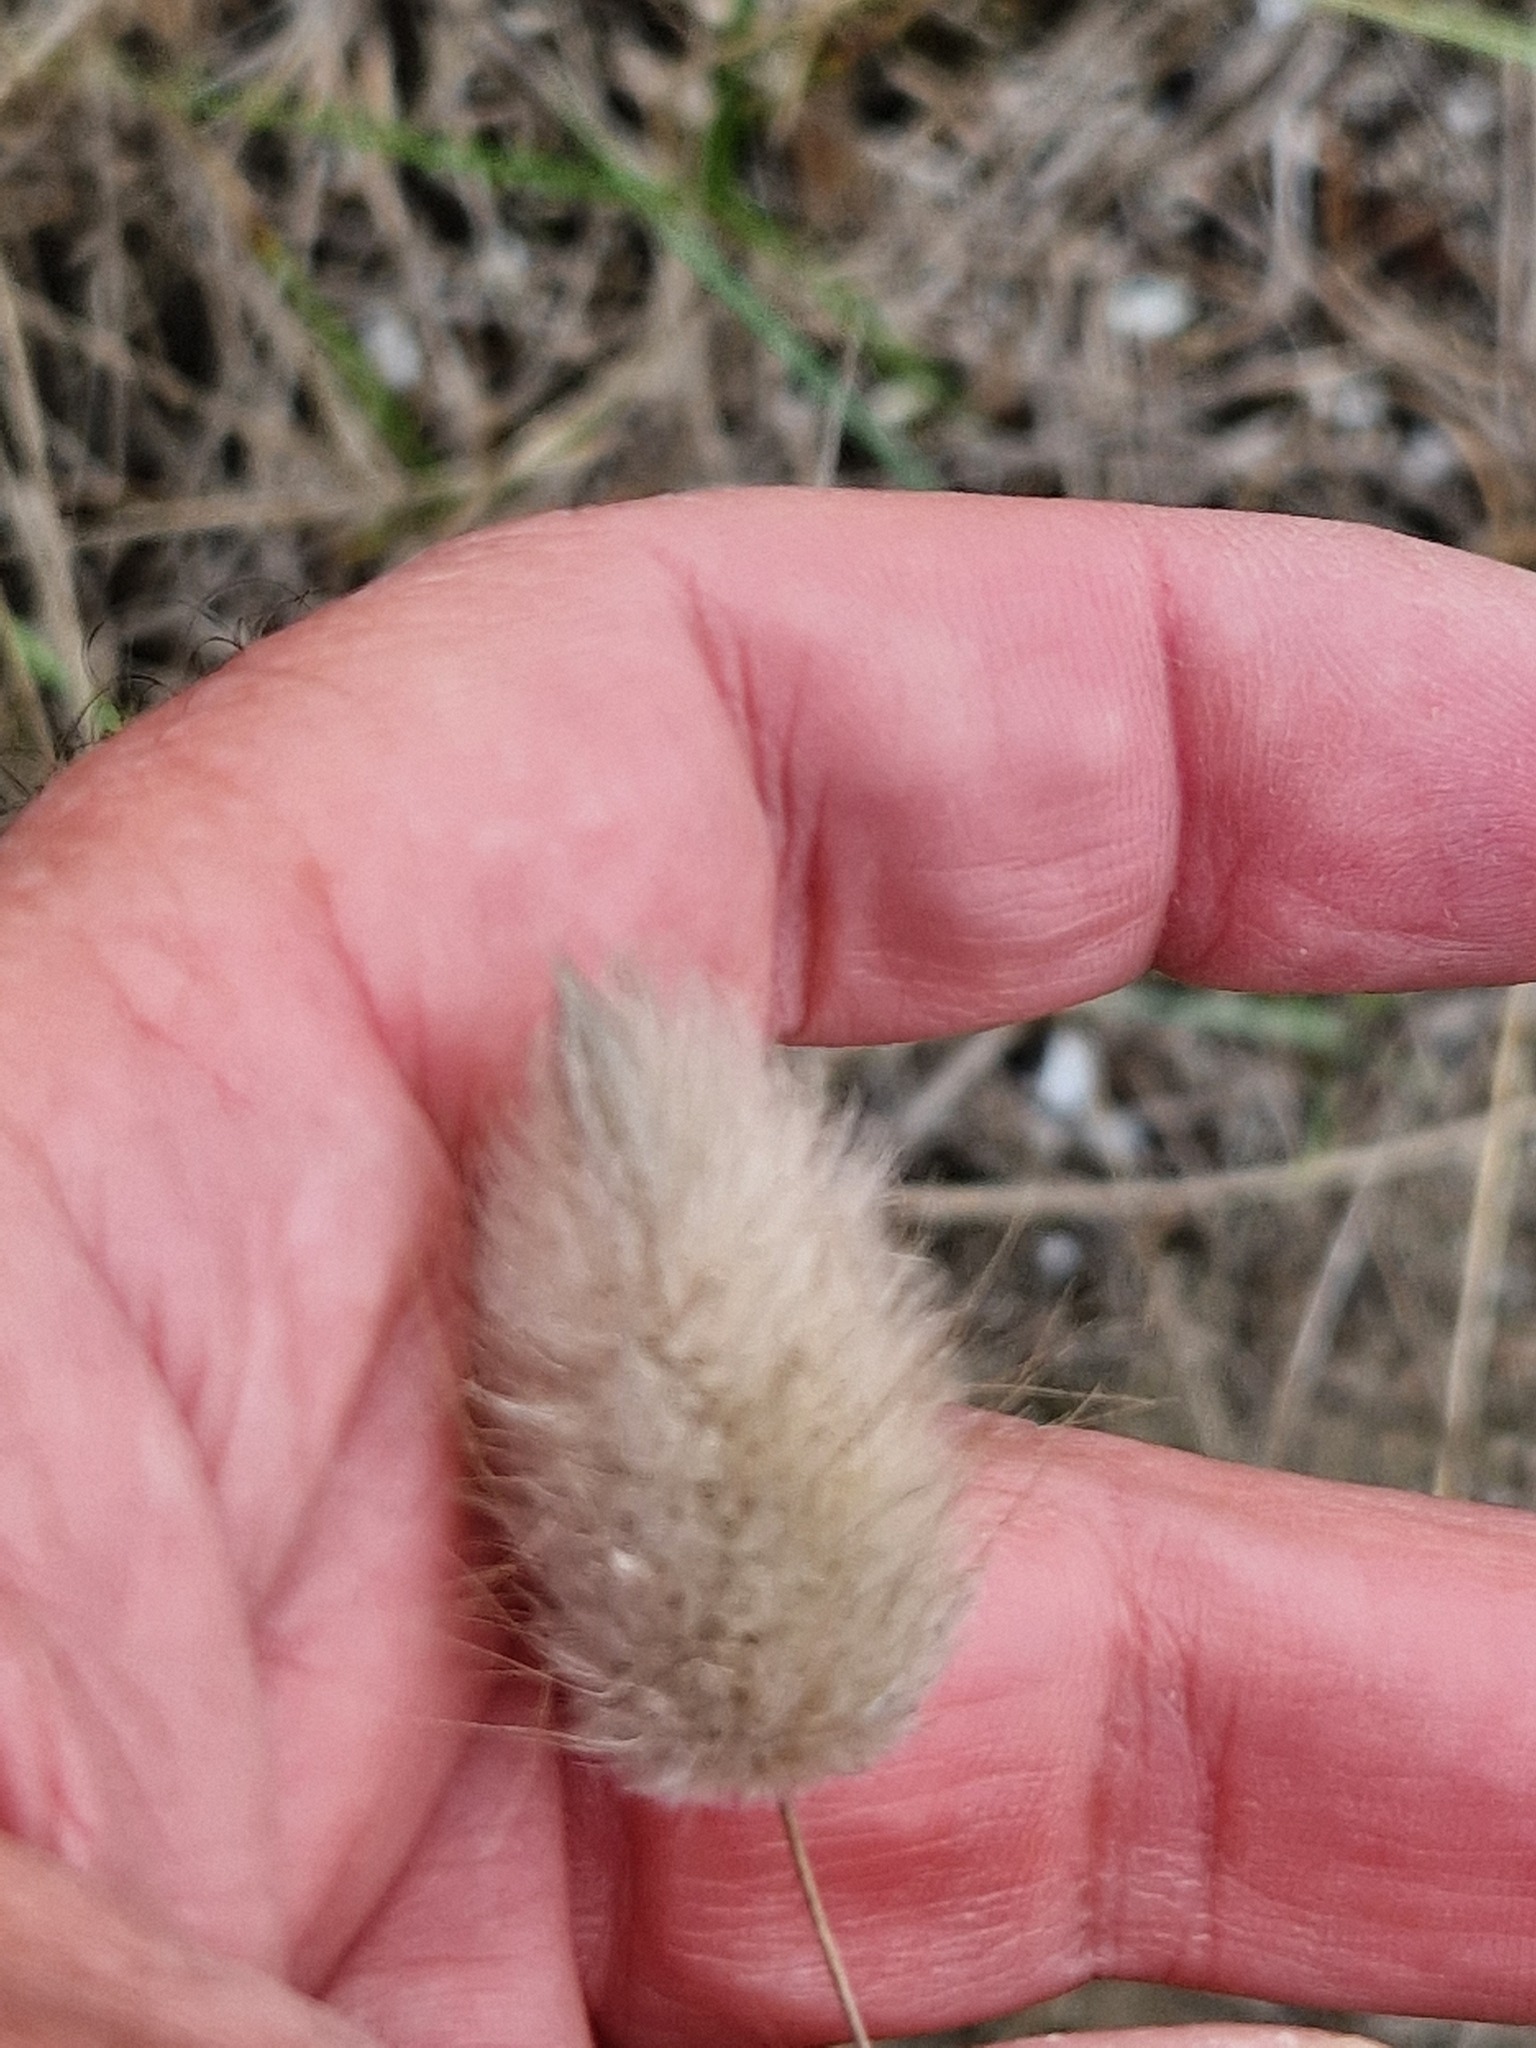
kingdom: Plantae
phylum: Tracheophyta
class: Liliopsida
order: Poales
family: Poaceae
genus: Lagurus
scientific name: Lagurus ovatus
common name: Hare's-tail
